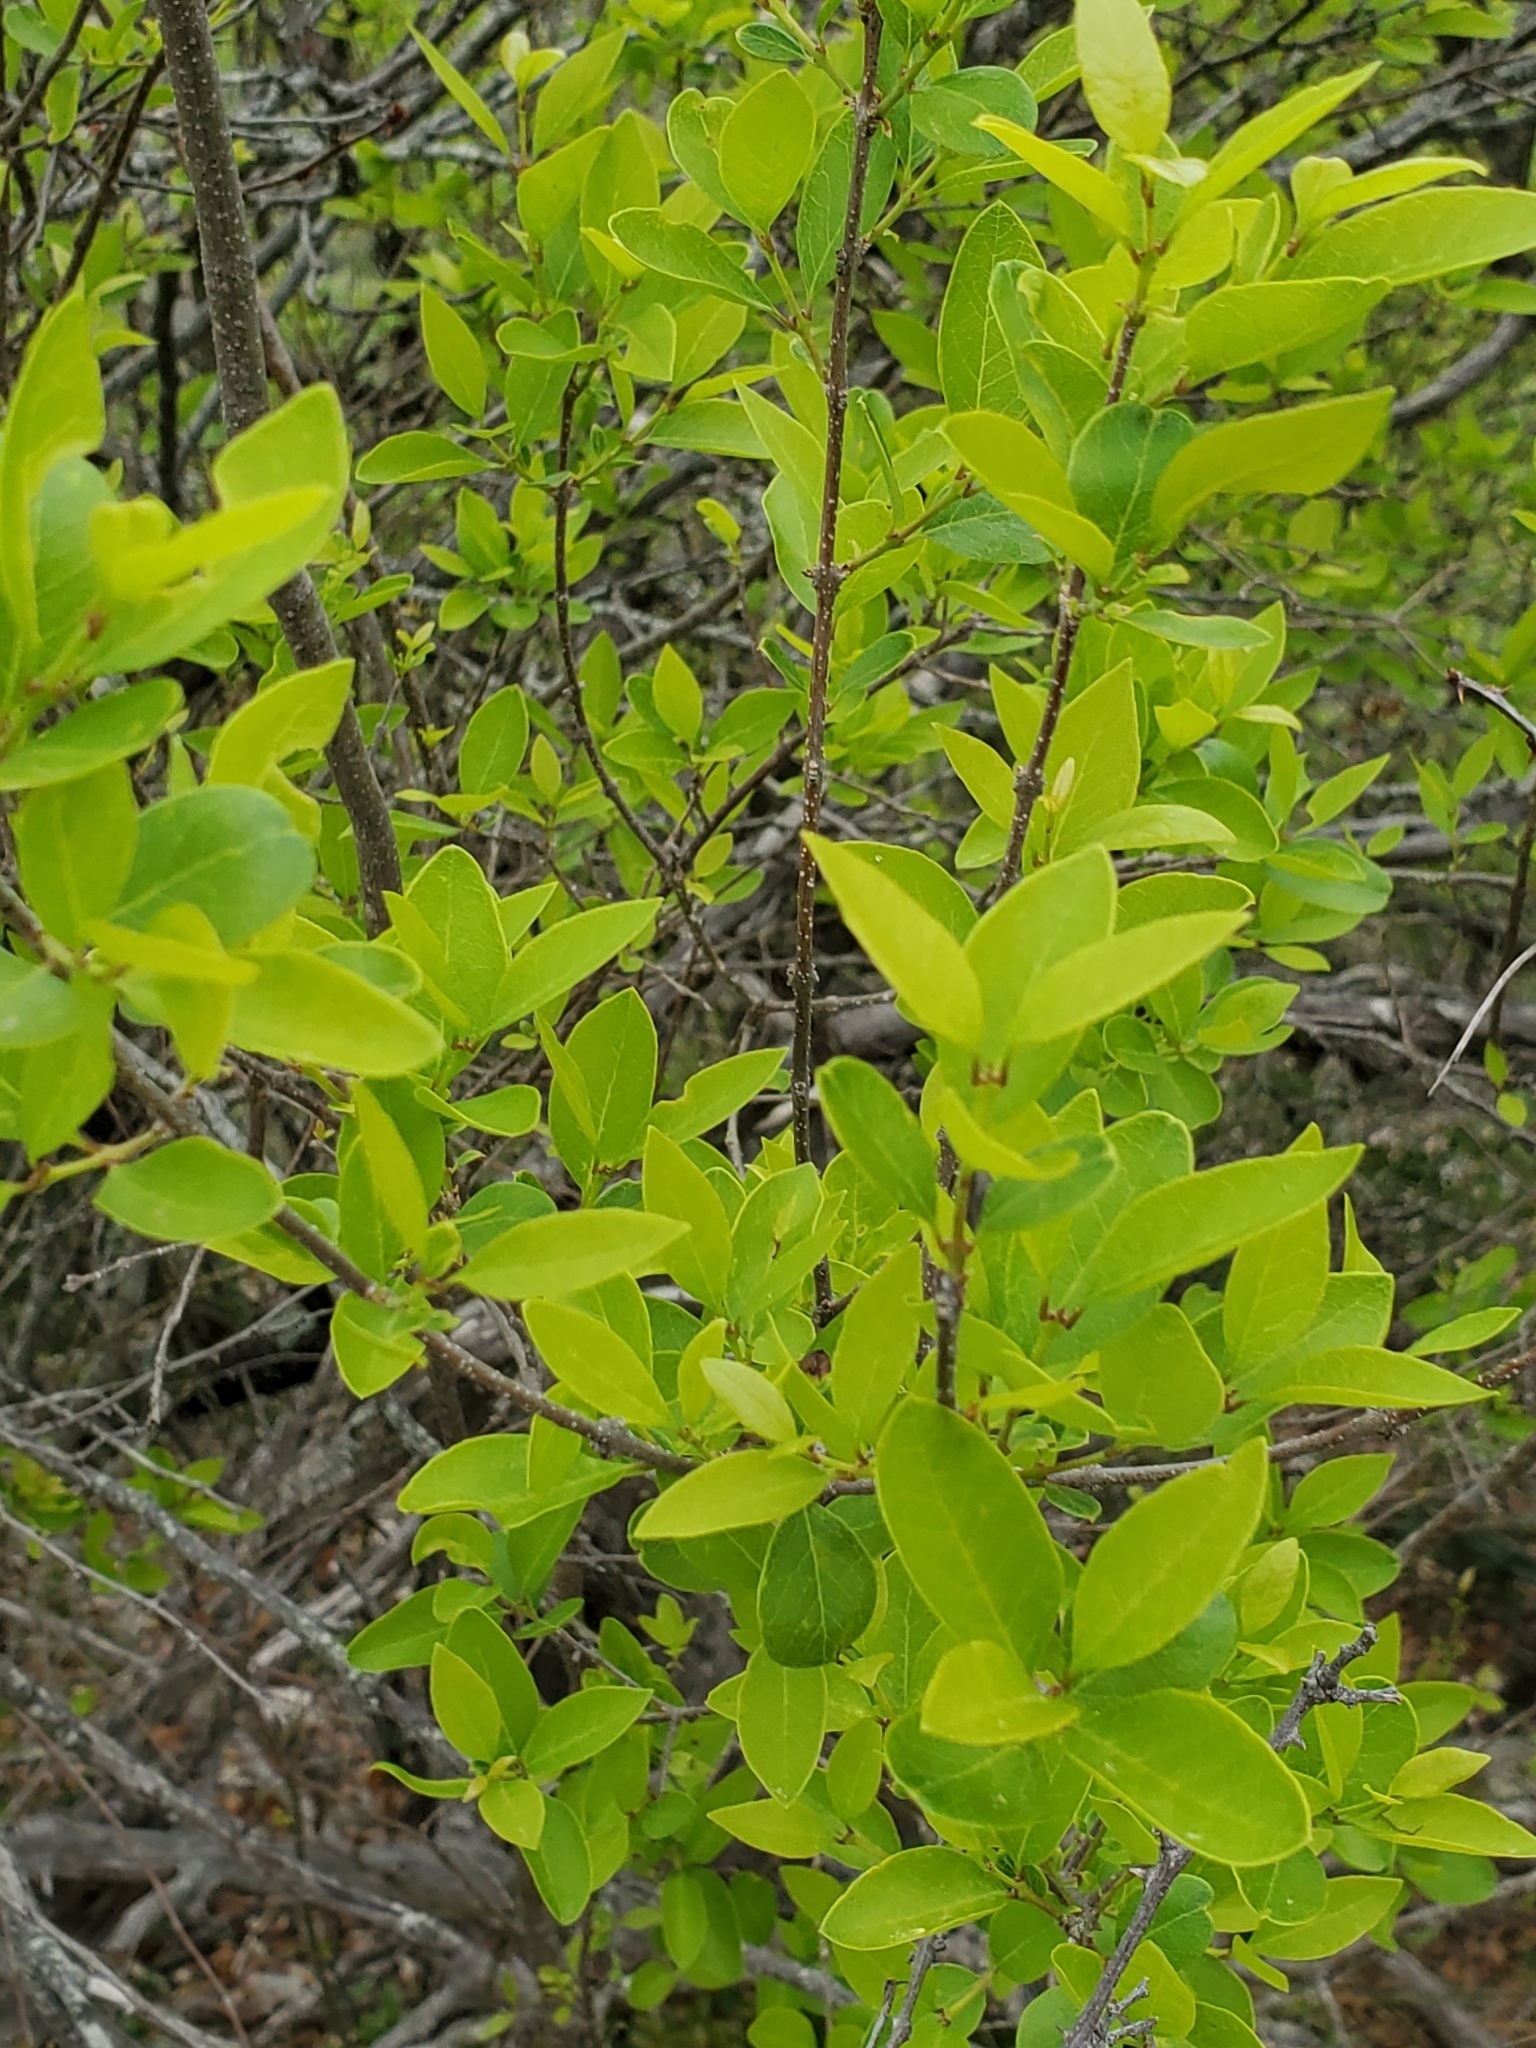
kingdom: Plantae
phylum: Tracheophyta
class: Magnoliopsida
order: Lamiales
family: Oleaceae
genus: Forestiera
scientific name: Forestiera reticulata
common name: Netleaf swamp-privet
